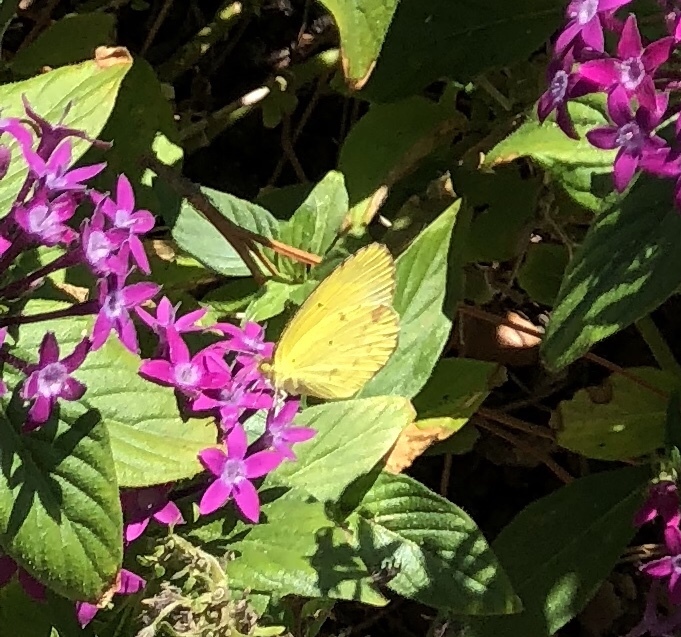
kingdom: Animalia
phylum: Arthropoda
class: Insecta
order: Lepidoptera
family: Pieridae
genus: Pyrisitia
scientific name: Pyrisitia lisa
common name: Little yellow
